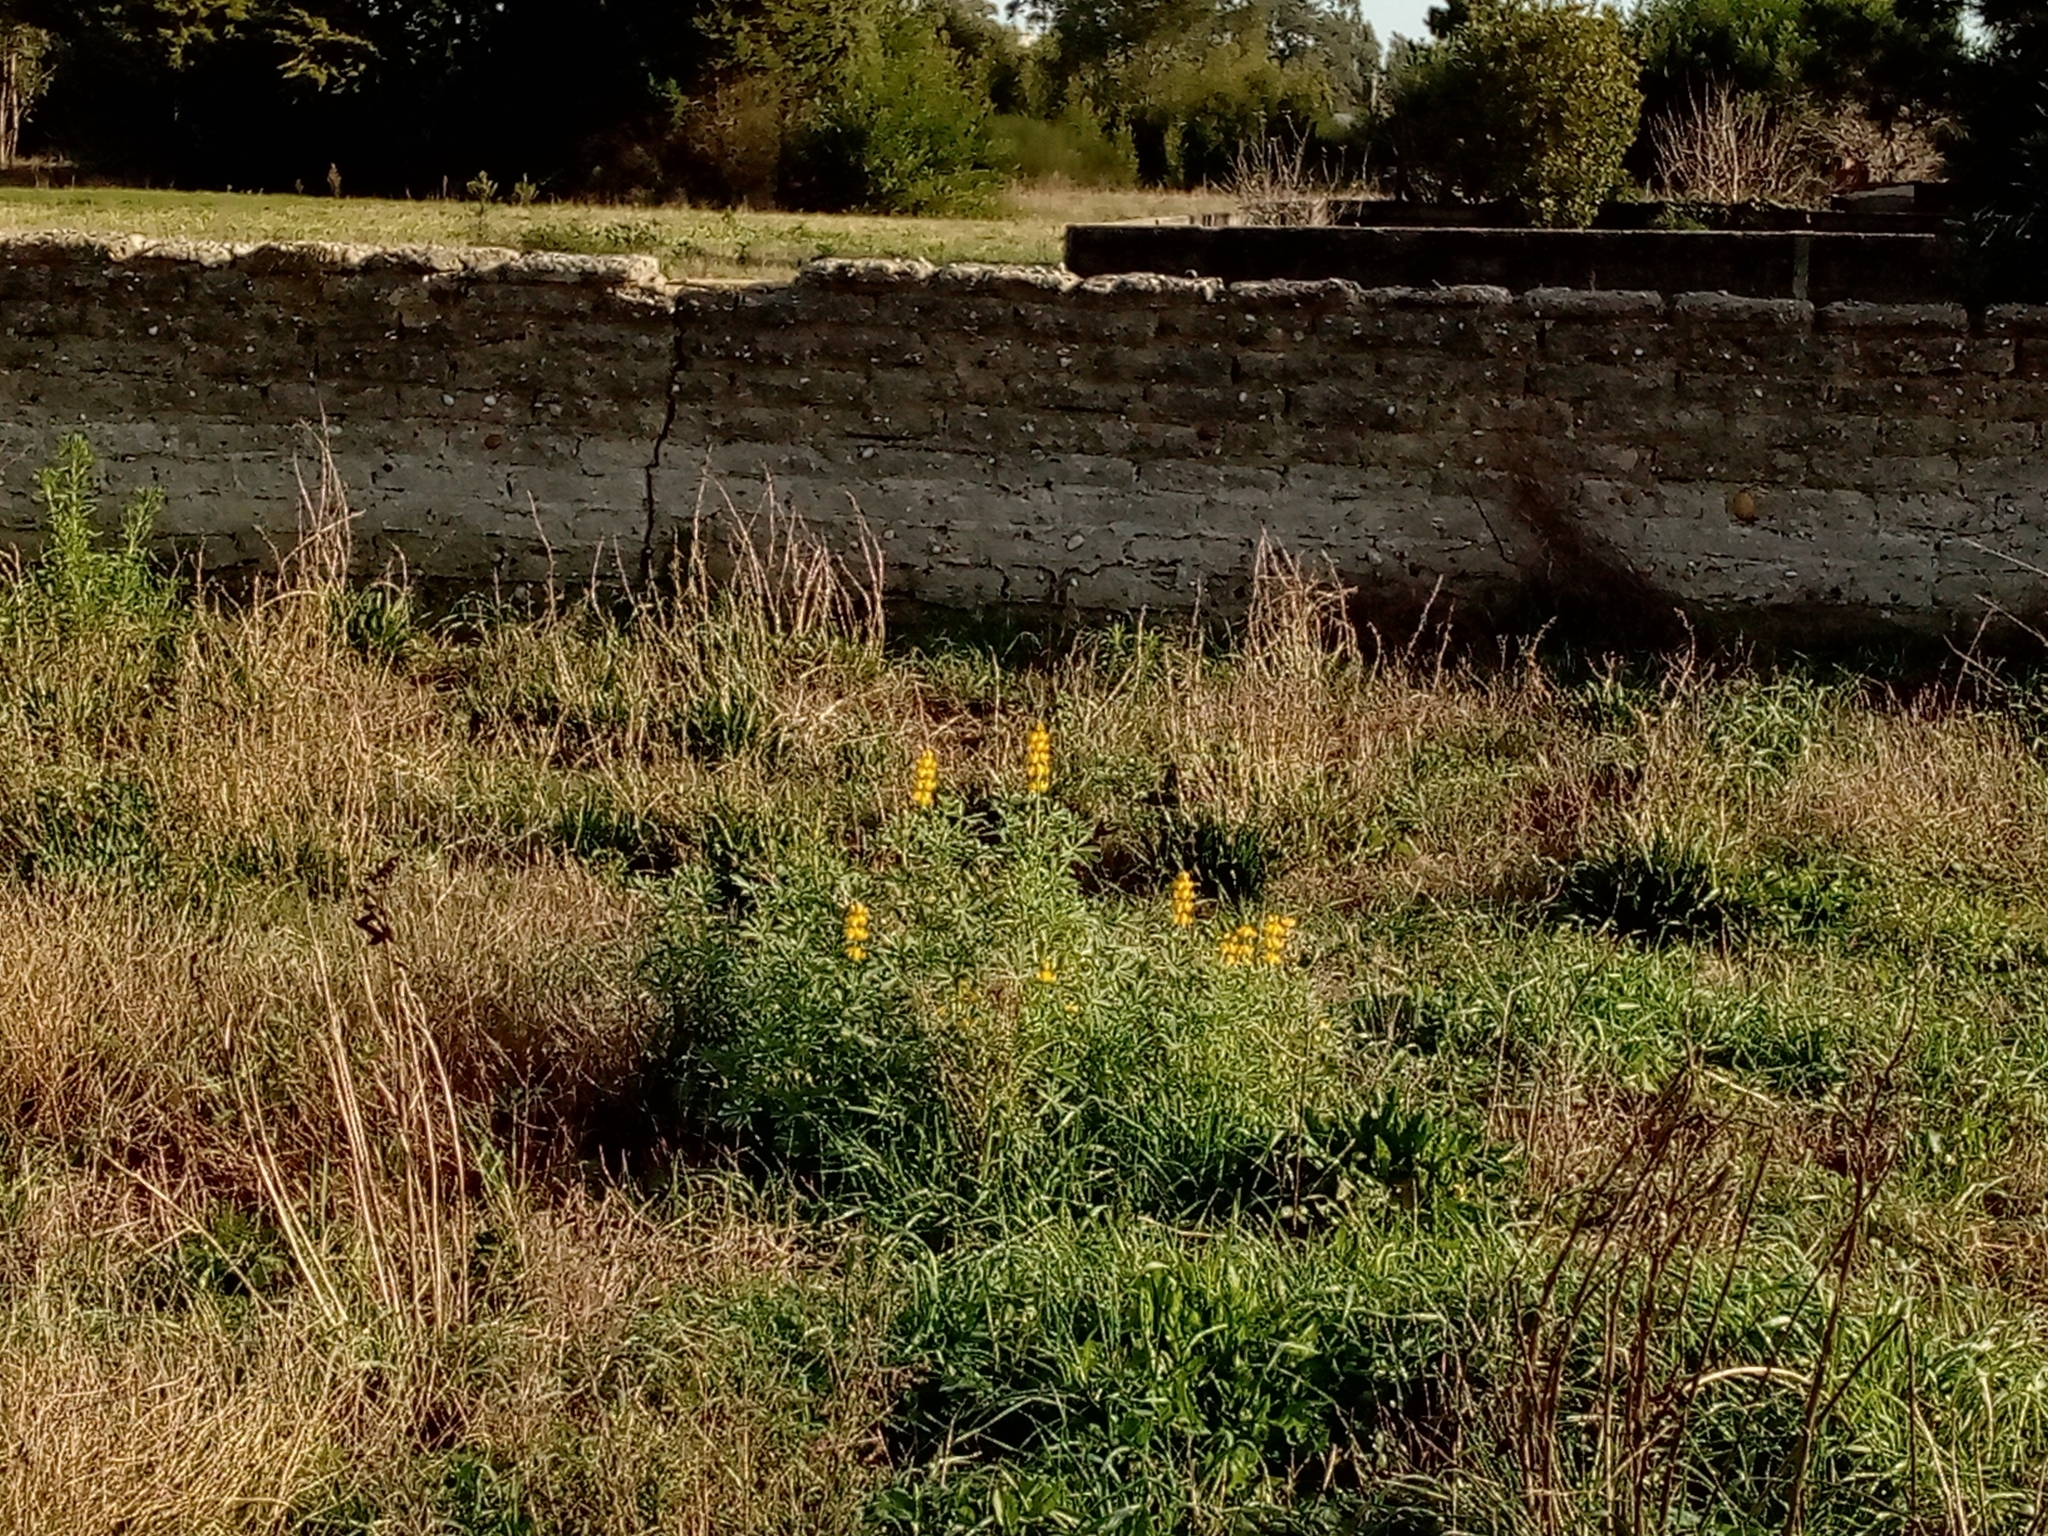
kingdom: Plantae
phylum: Tracheophyta
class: Magnoliopsida
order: Fabales
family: Fabaceae
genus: Lupinus
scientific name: Lupinus luteus
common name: European yellow lupine
